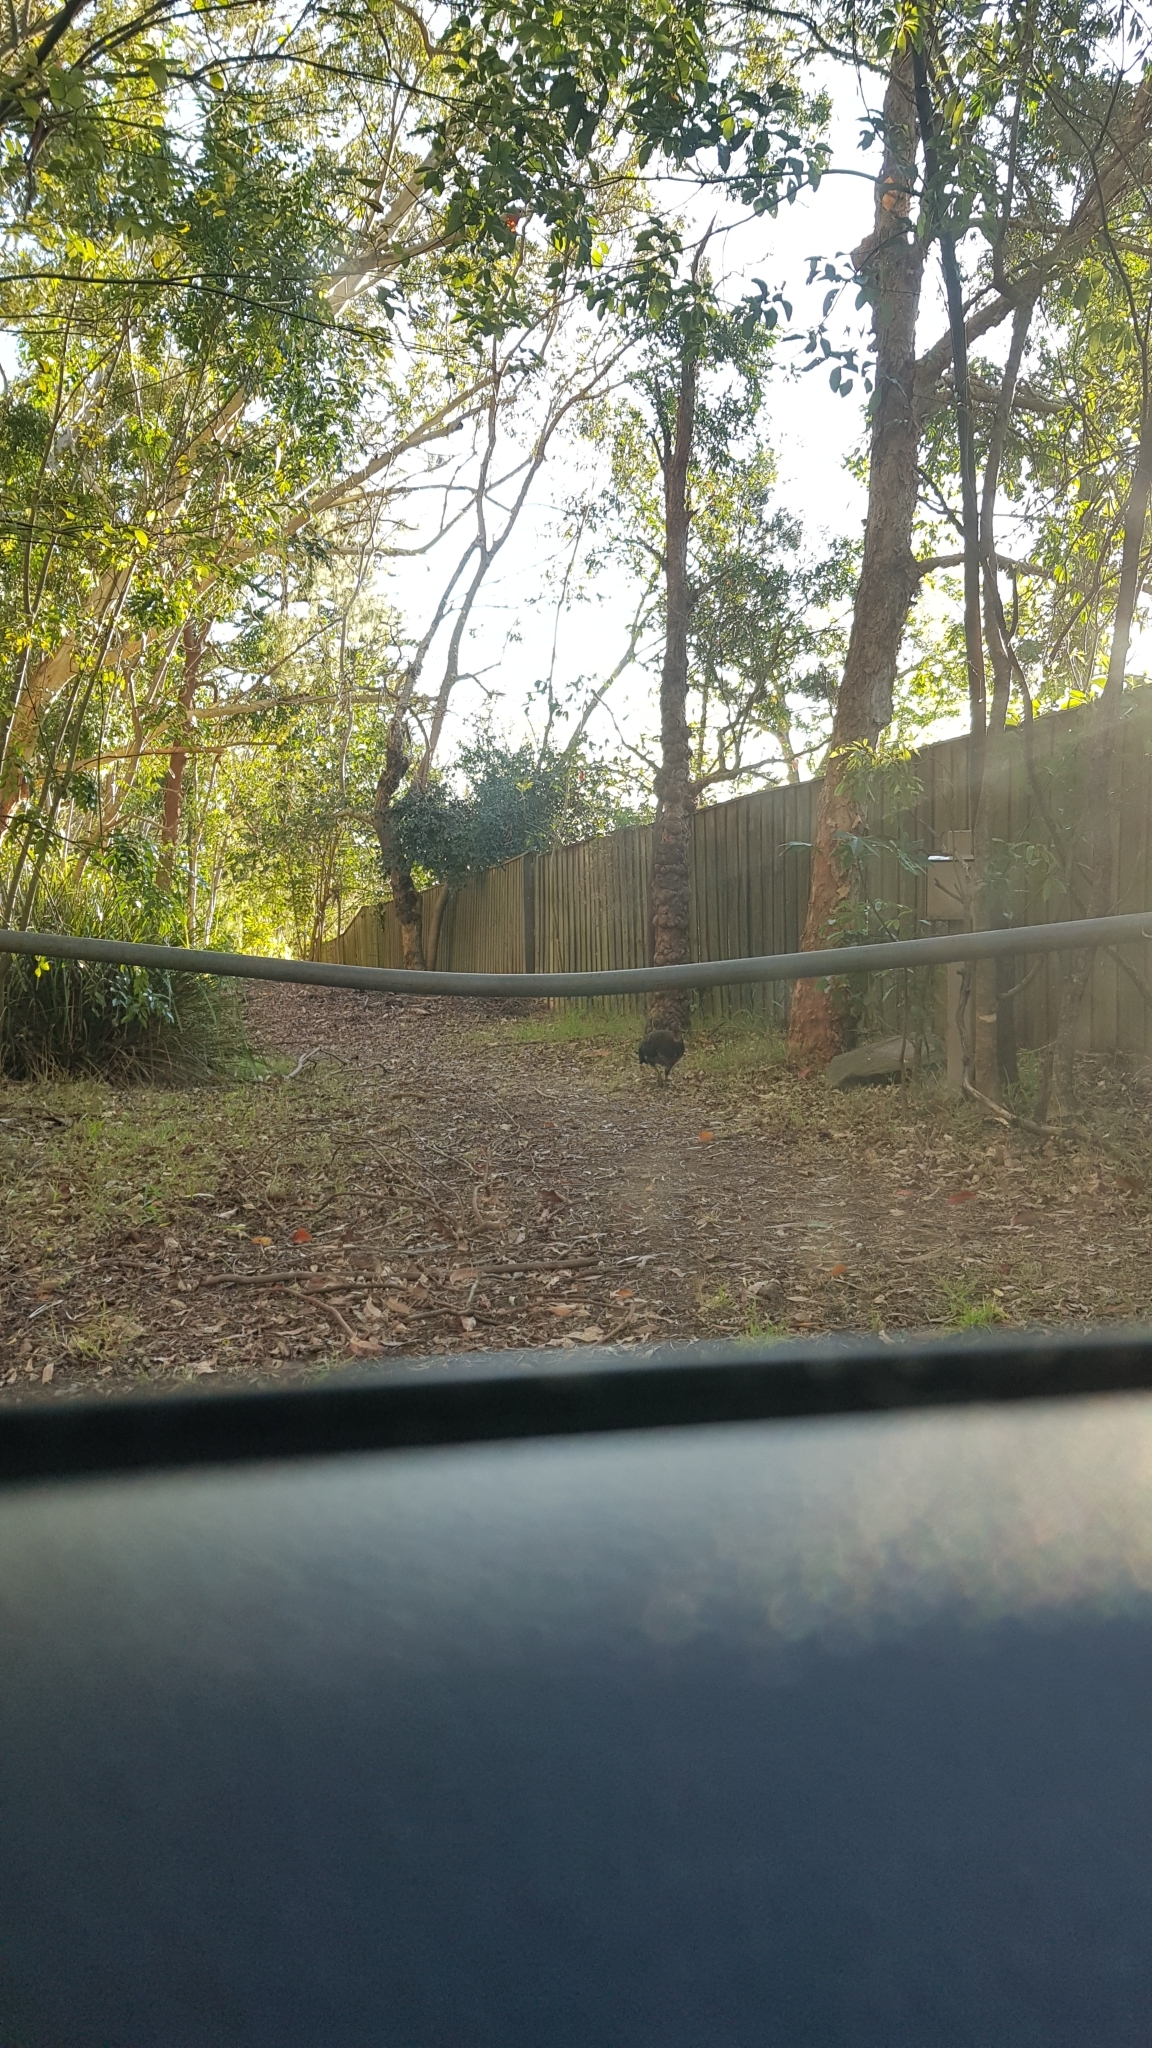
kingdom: Animalia
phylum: Chordata
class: Aves
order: Galliformes
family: Megapodiidae
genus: Alectura
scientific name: Alectura lathami
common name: Australian brushturkey
